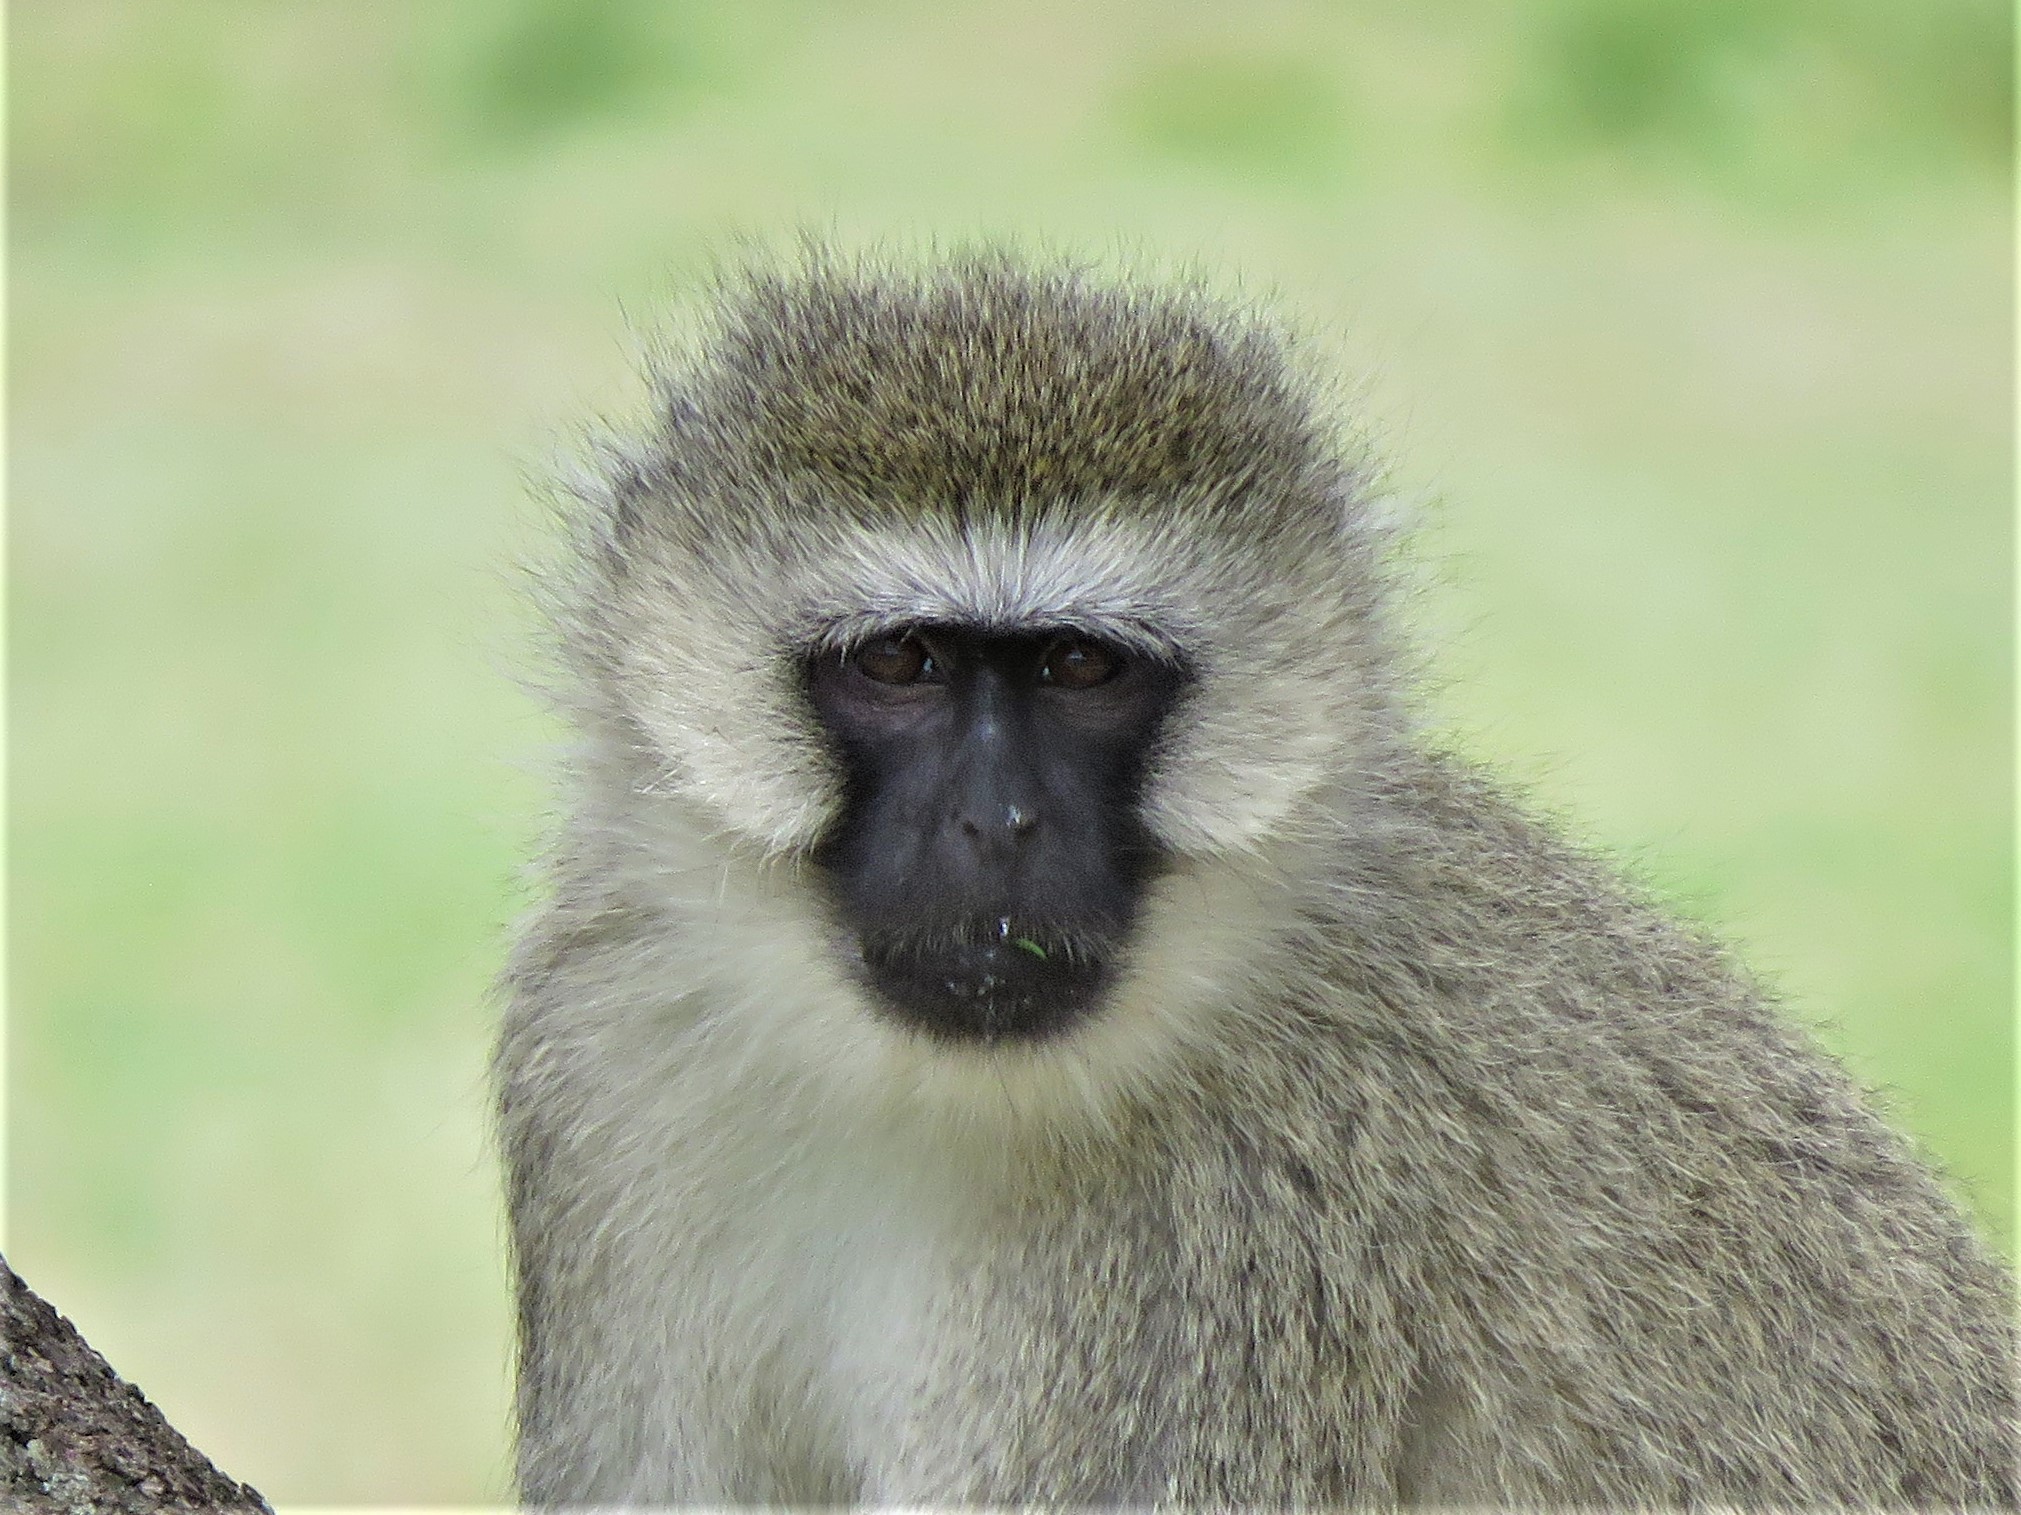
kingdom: Animalia
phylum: Chordata
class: Mammalia
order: Primates
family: Cercopithecidae
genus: Chlorocebus
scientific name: Chlorocebus pygerythrus
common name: Vervet monkey
